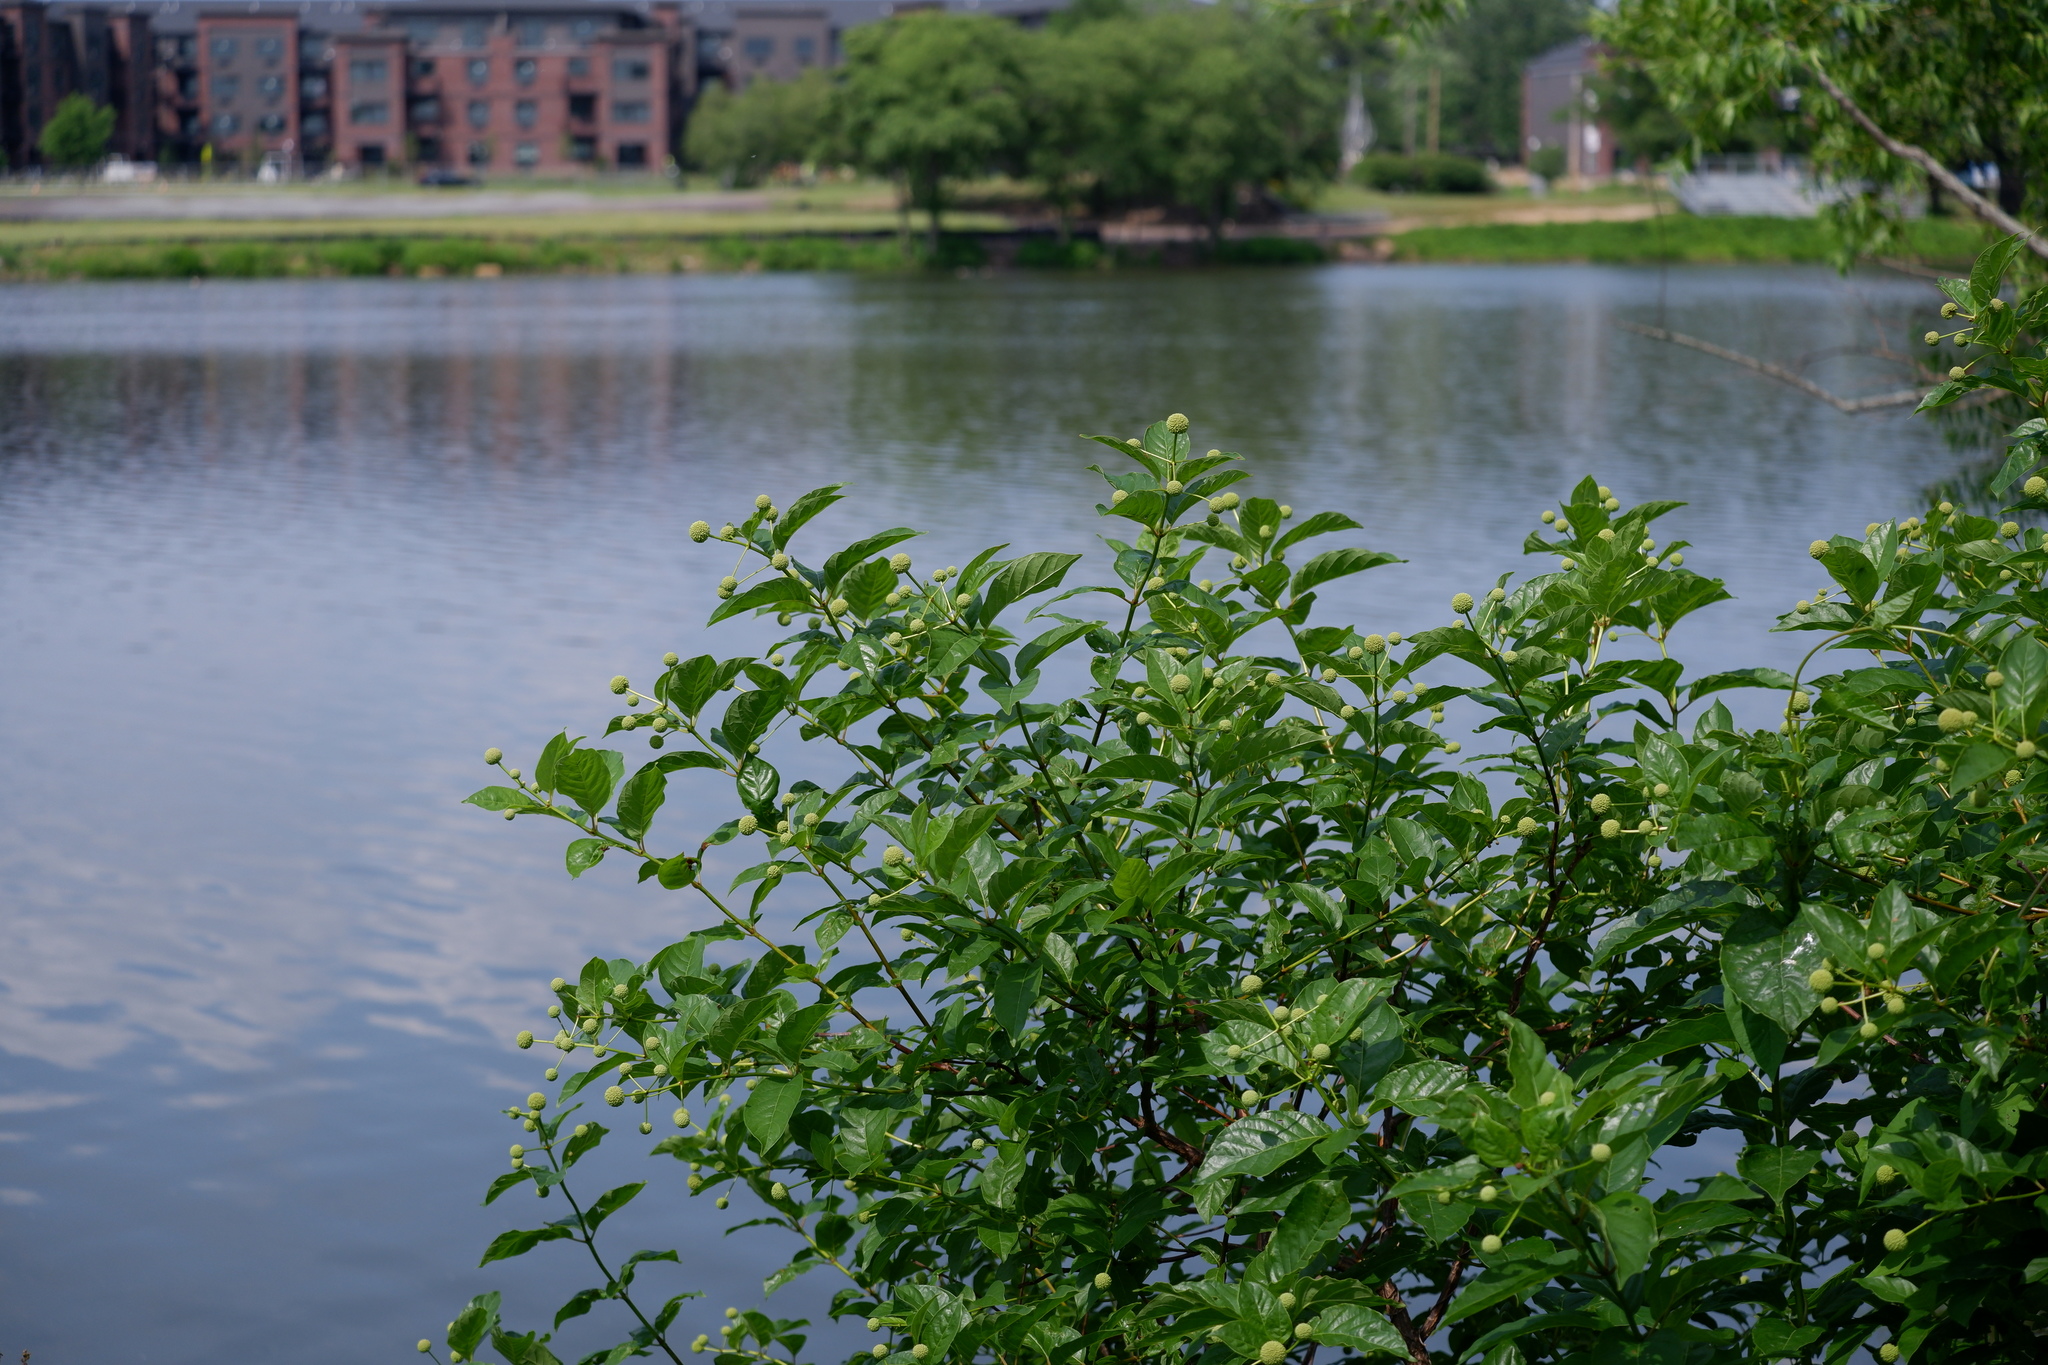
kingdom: Plantae
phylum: Tracheophyta
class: Magnoliopsida
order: Gentianales
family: Rubiaceae
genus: Cephalanthus
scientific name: Cephalanthus occidentalis
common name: Button-willow
